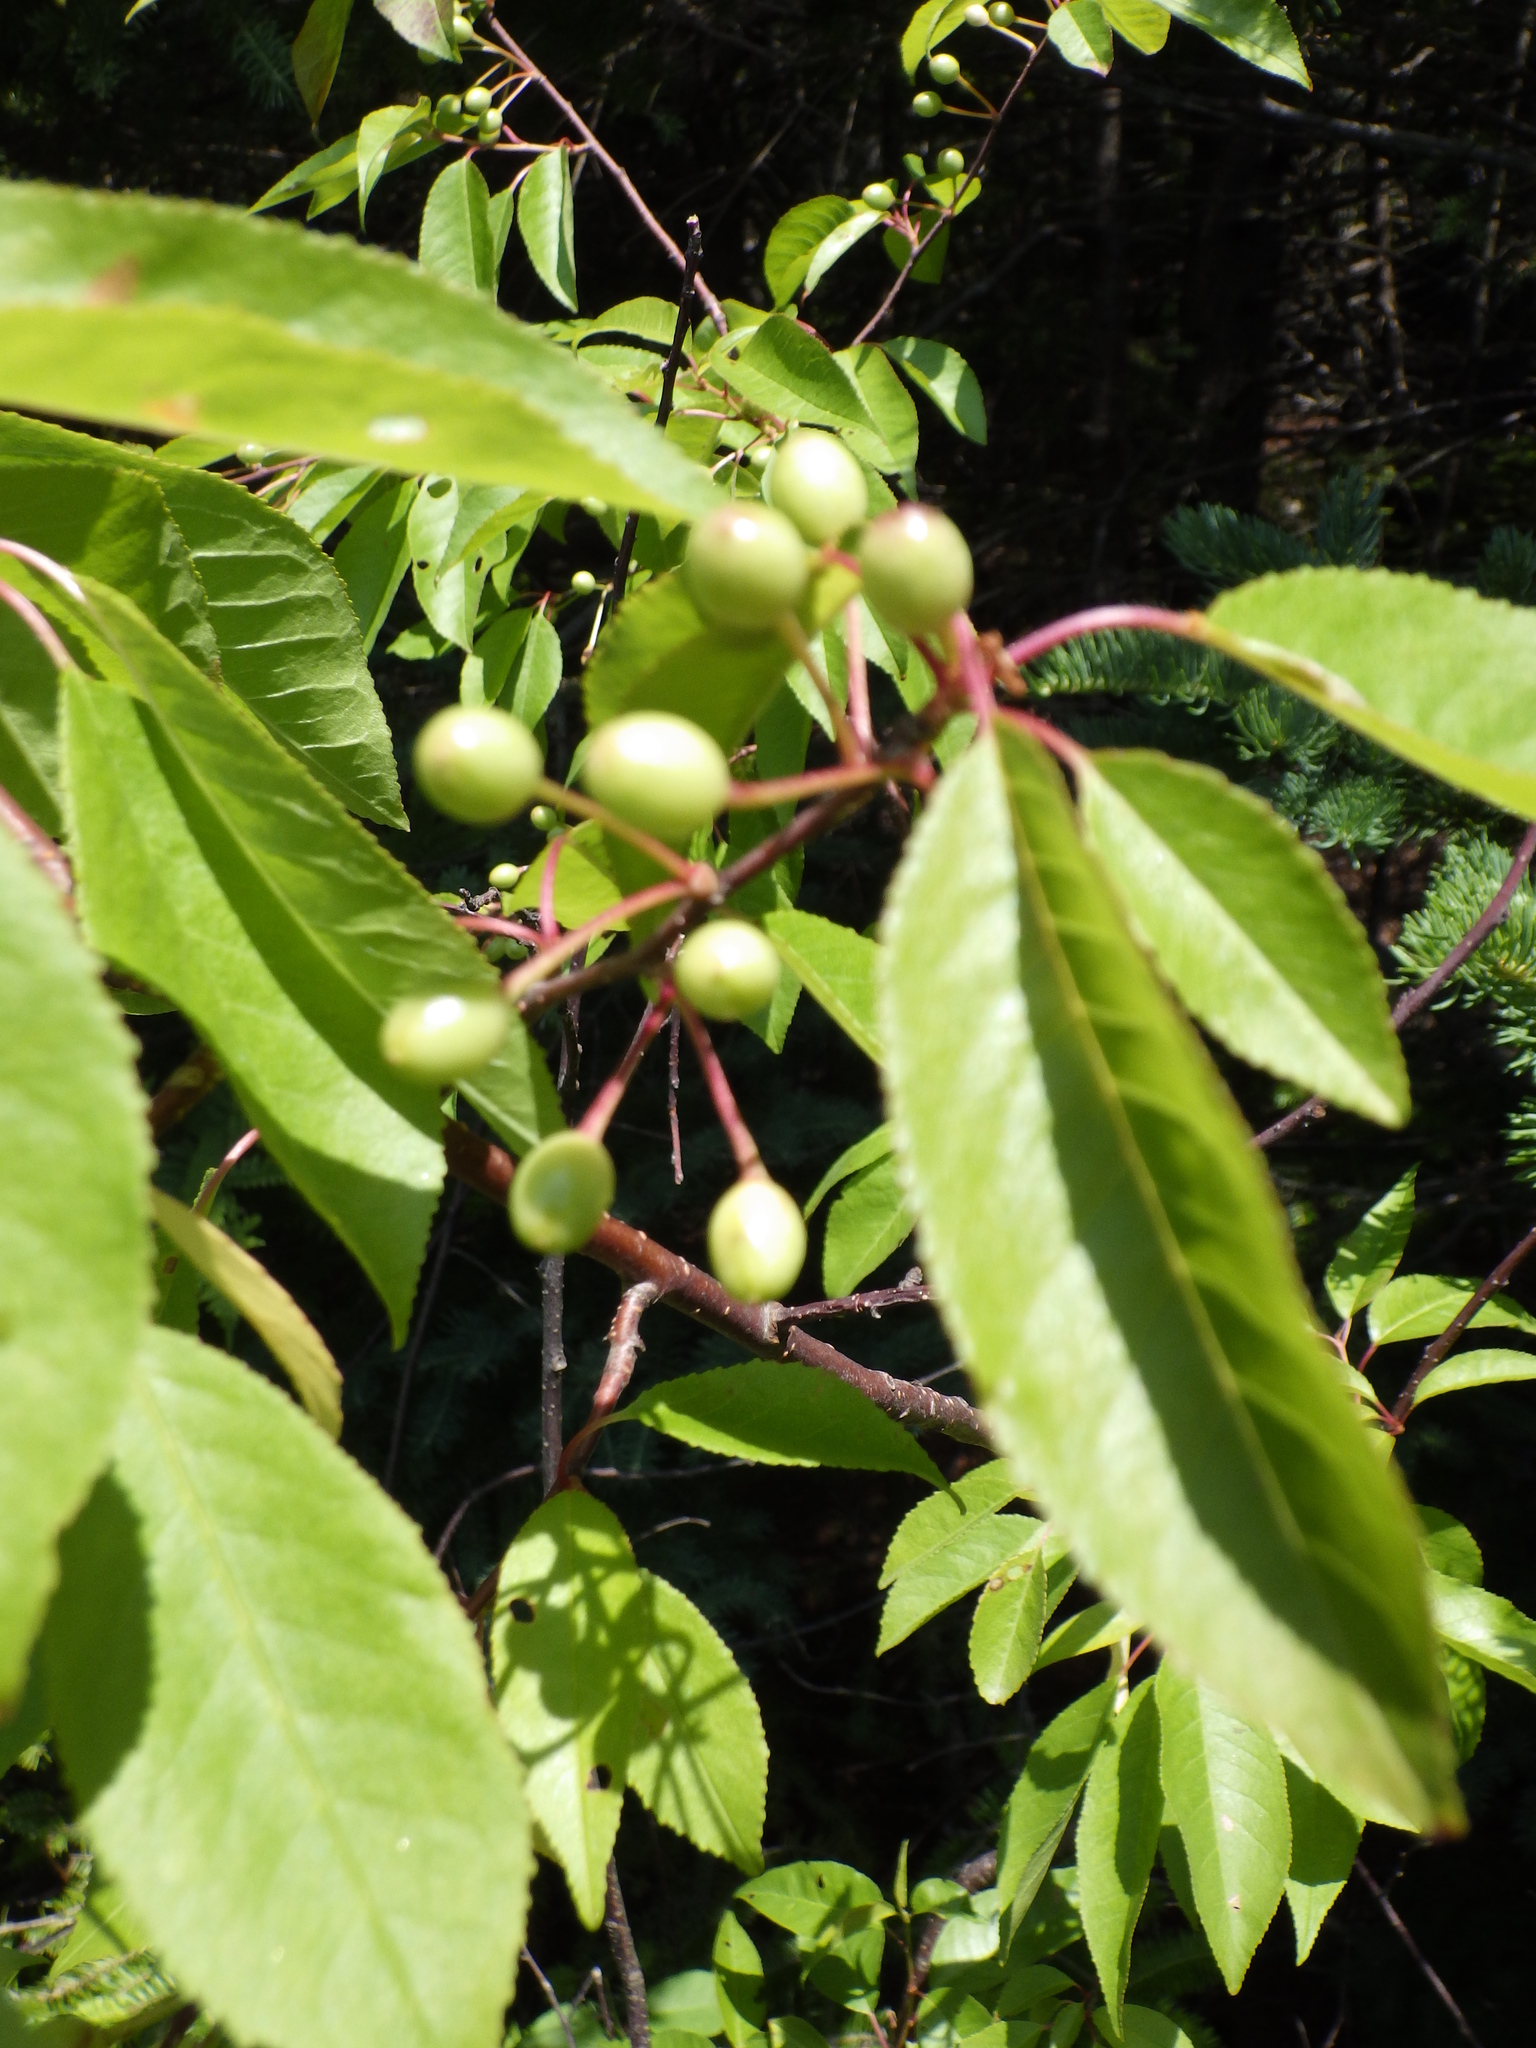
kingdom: Plantae
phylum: Tracheophyta
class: Magnoliopsida
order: Rosales
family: Rosaceae
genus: Prunus
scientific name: Prunus pensylvanica
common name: Pin cherry
